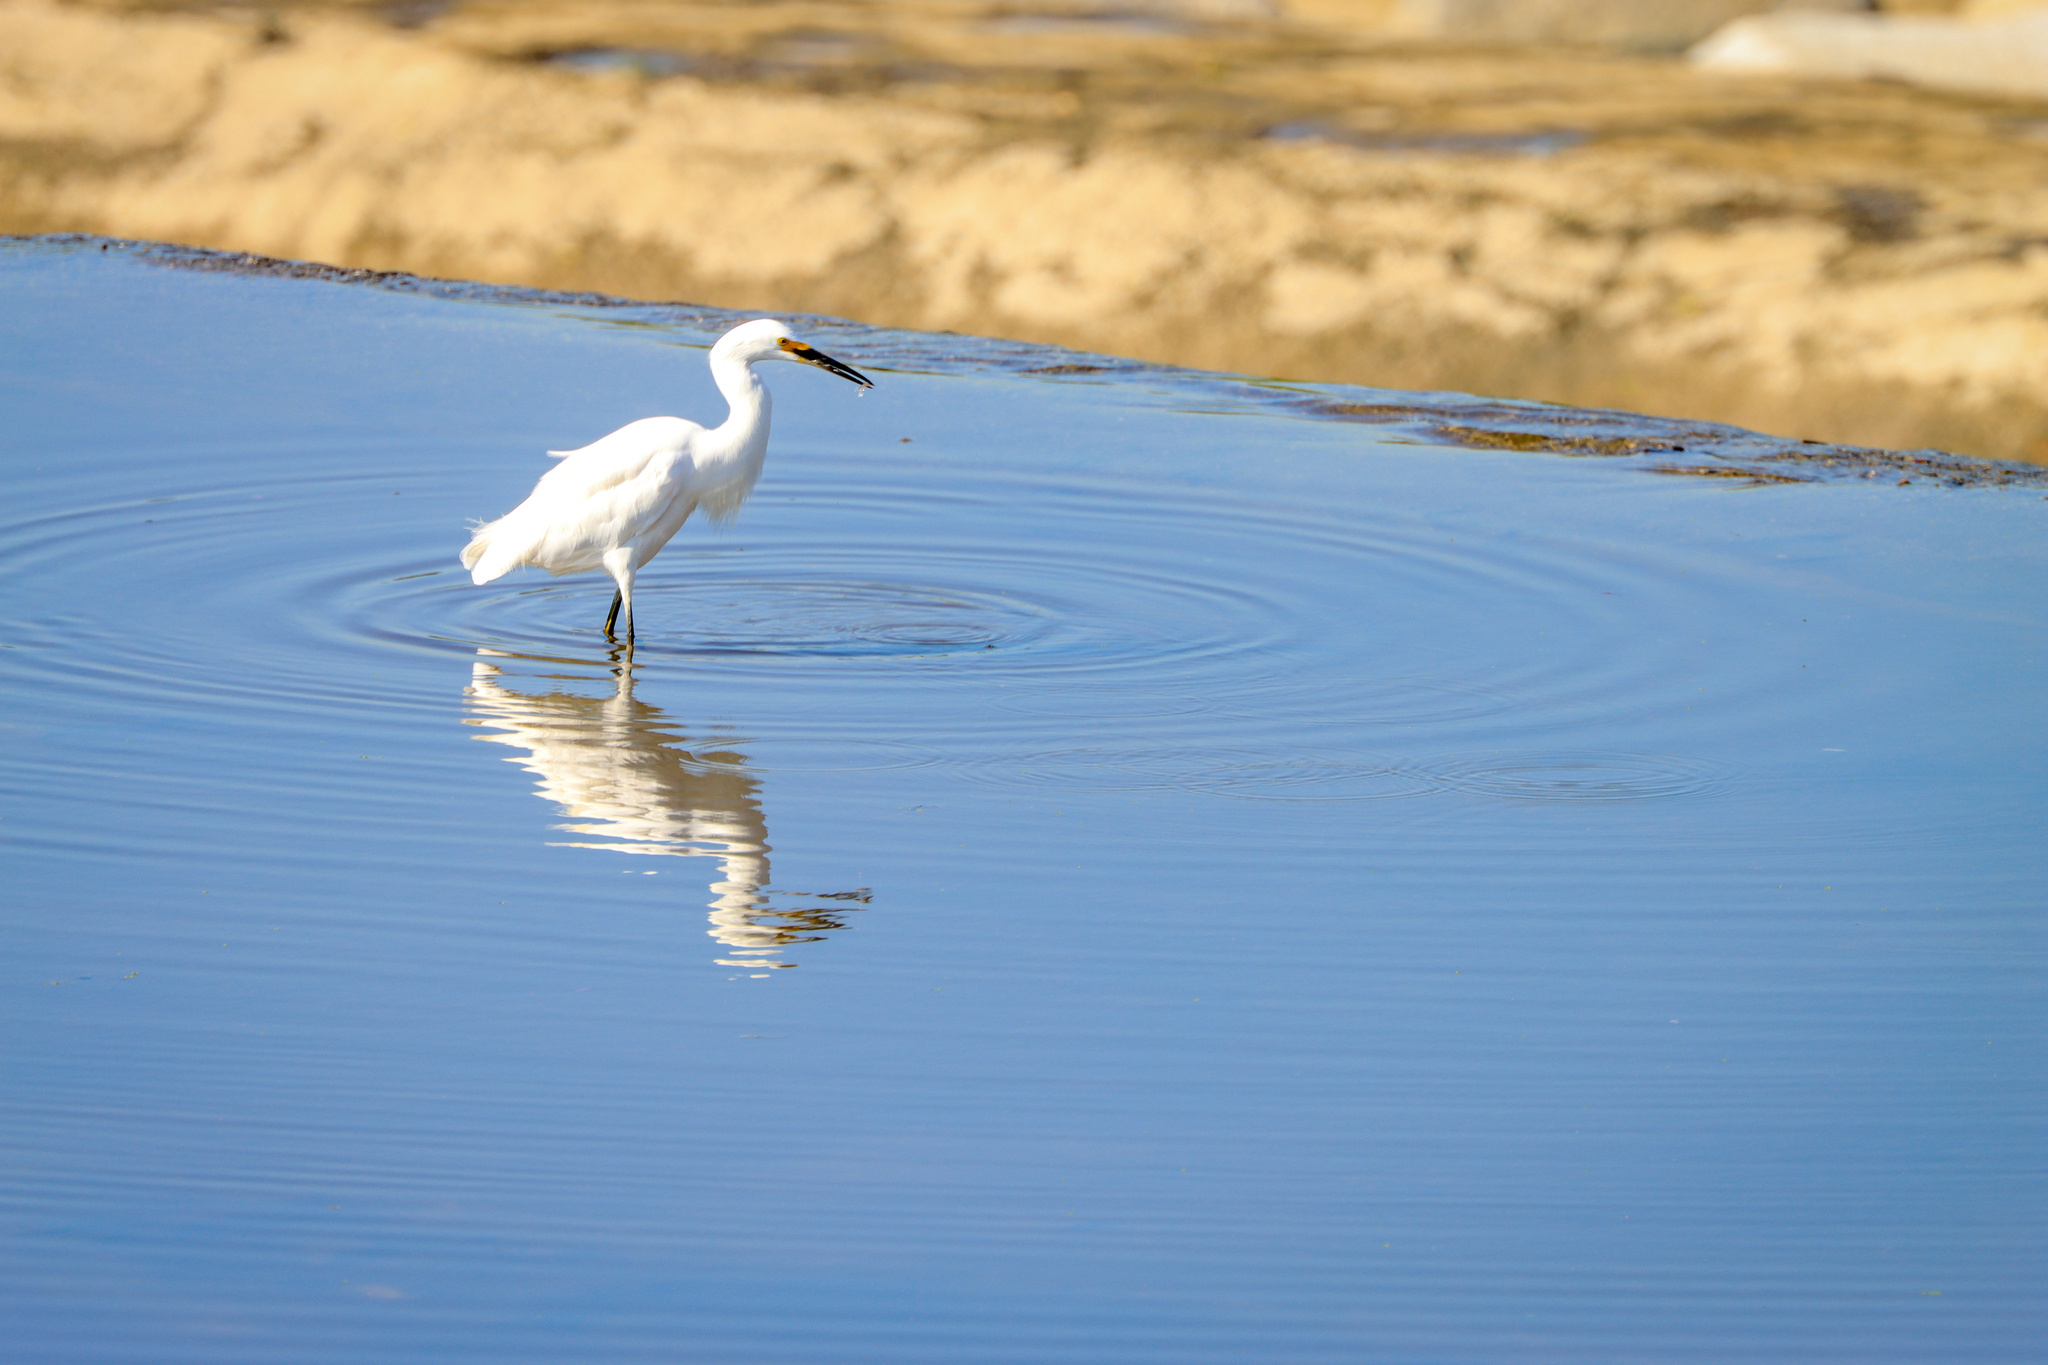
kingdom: Animalia
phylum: Chordata
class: Aves
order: Pelecaniformes
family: Ardeidae
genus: Egretta
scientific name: Egretta thula
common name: Snowy egret
